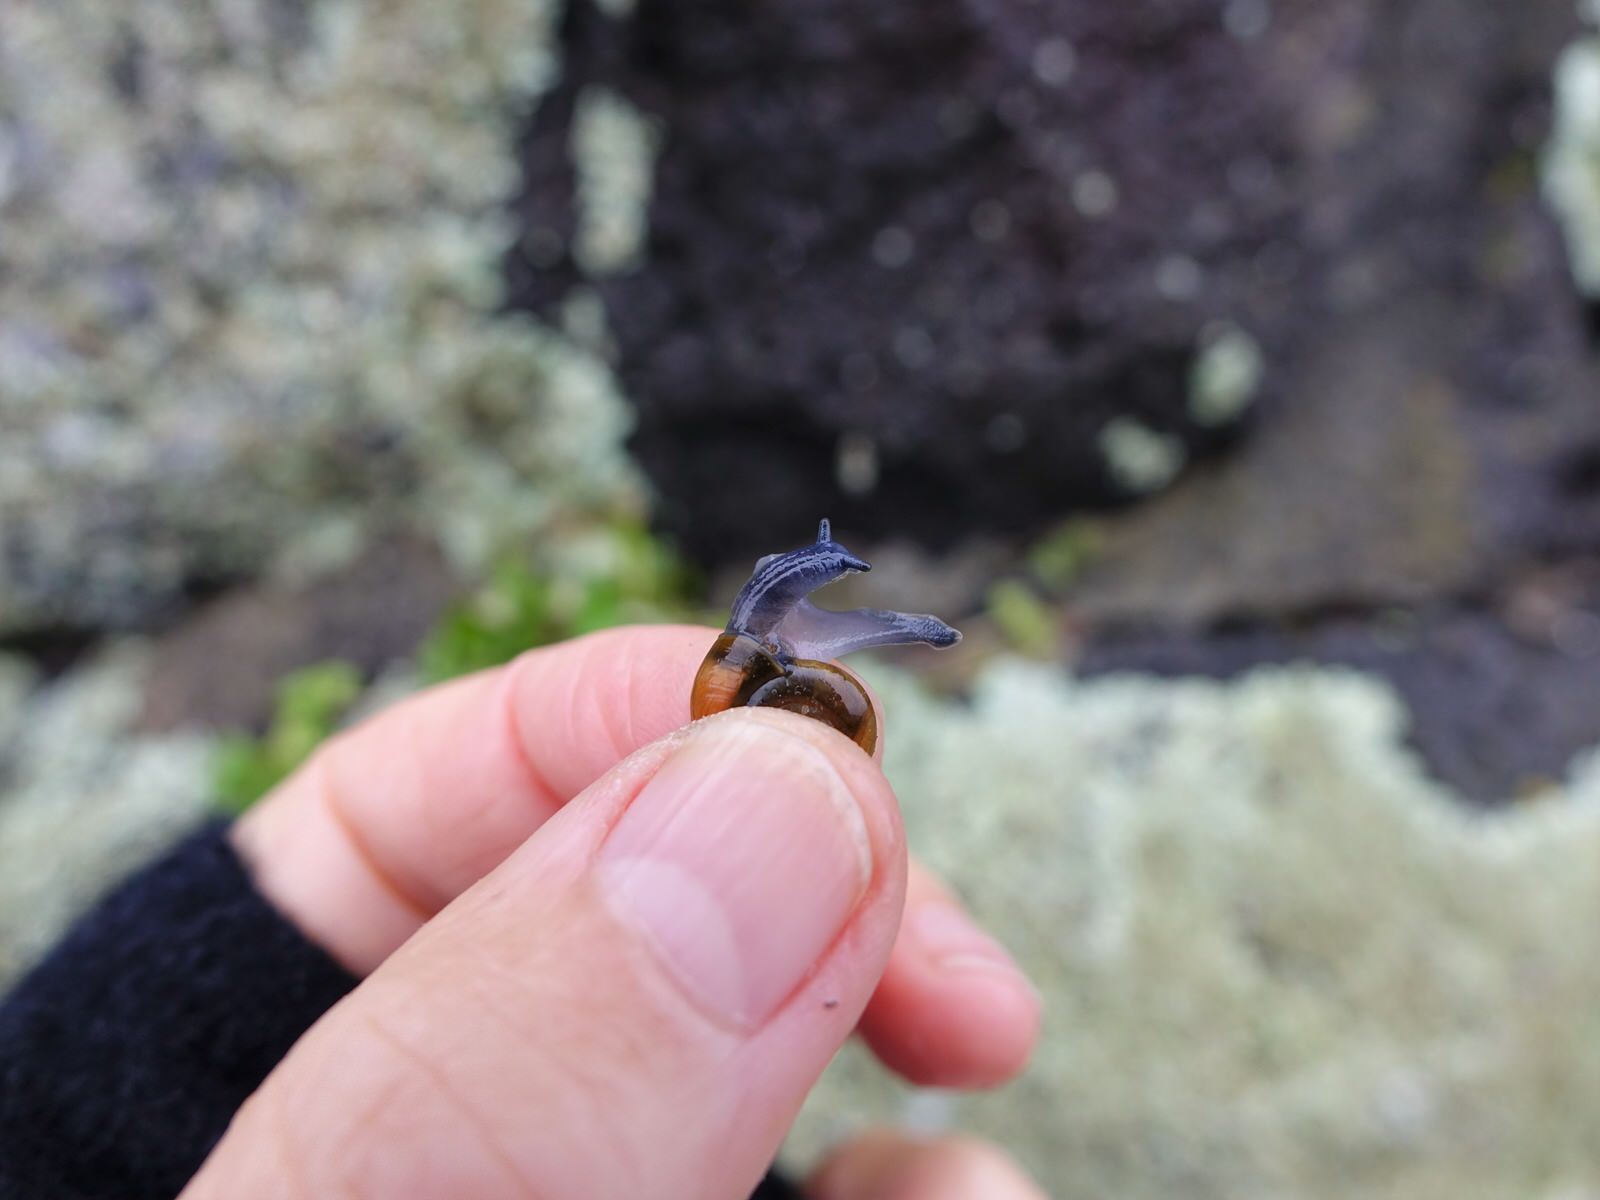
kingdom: Animalia
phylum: Mollusca
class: Gastropoda
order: Stylommatophora
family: Oxychilidae
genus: Oxychilus
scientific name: Oxychilus draparnaudi
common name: Draparnaud's glass snail
